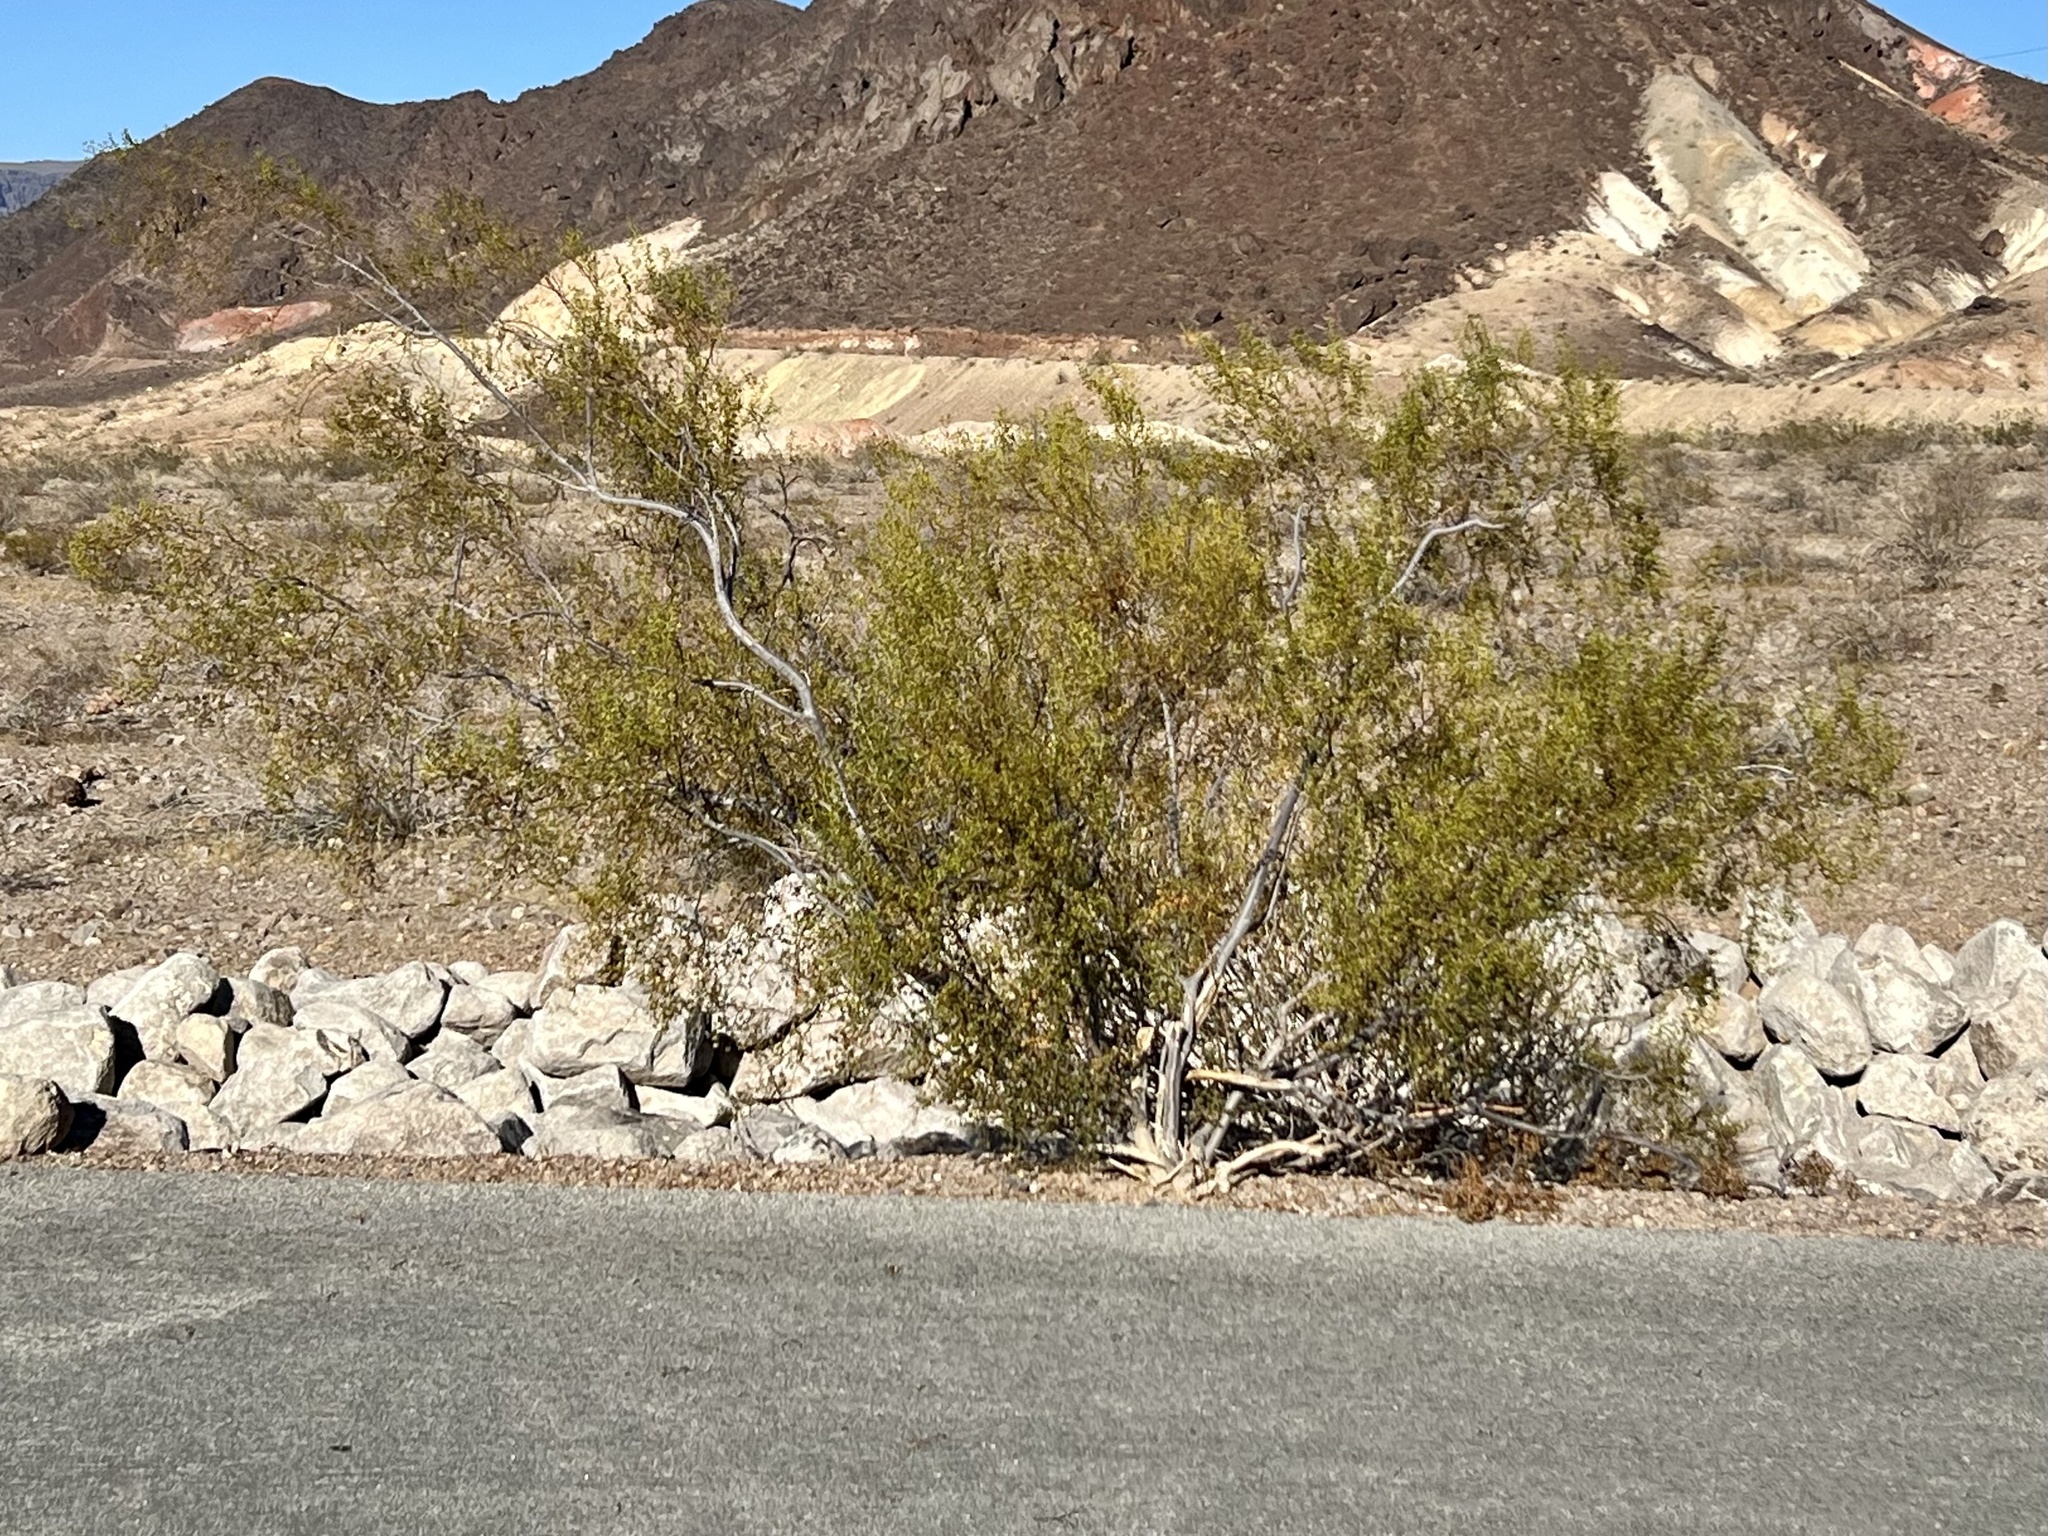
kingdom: Plantae
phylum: Tracheophyta
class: Magnoliopsida
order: Zygophyllales
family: Zygophyllaceae
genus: Larrea
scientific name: Larrea tridentata
